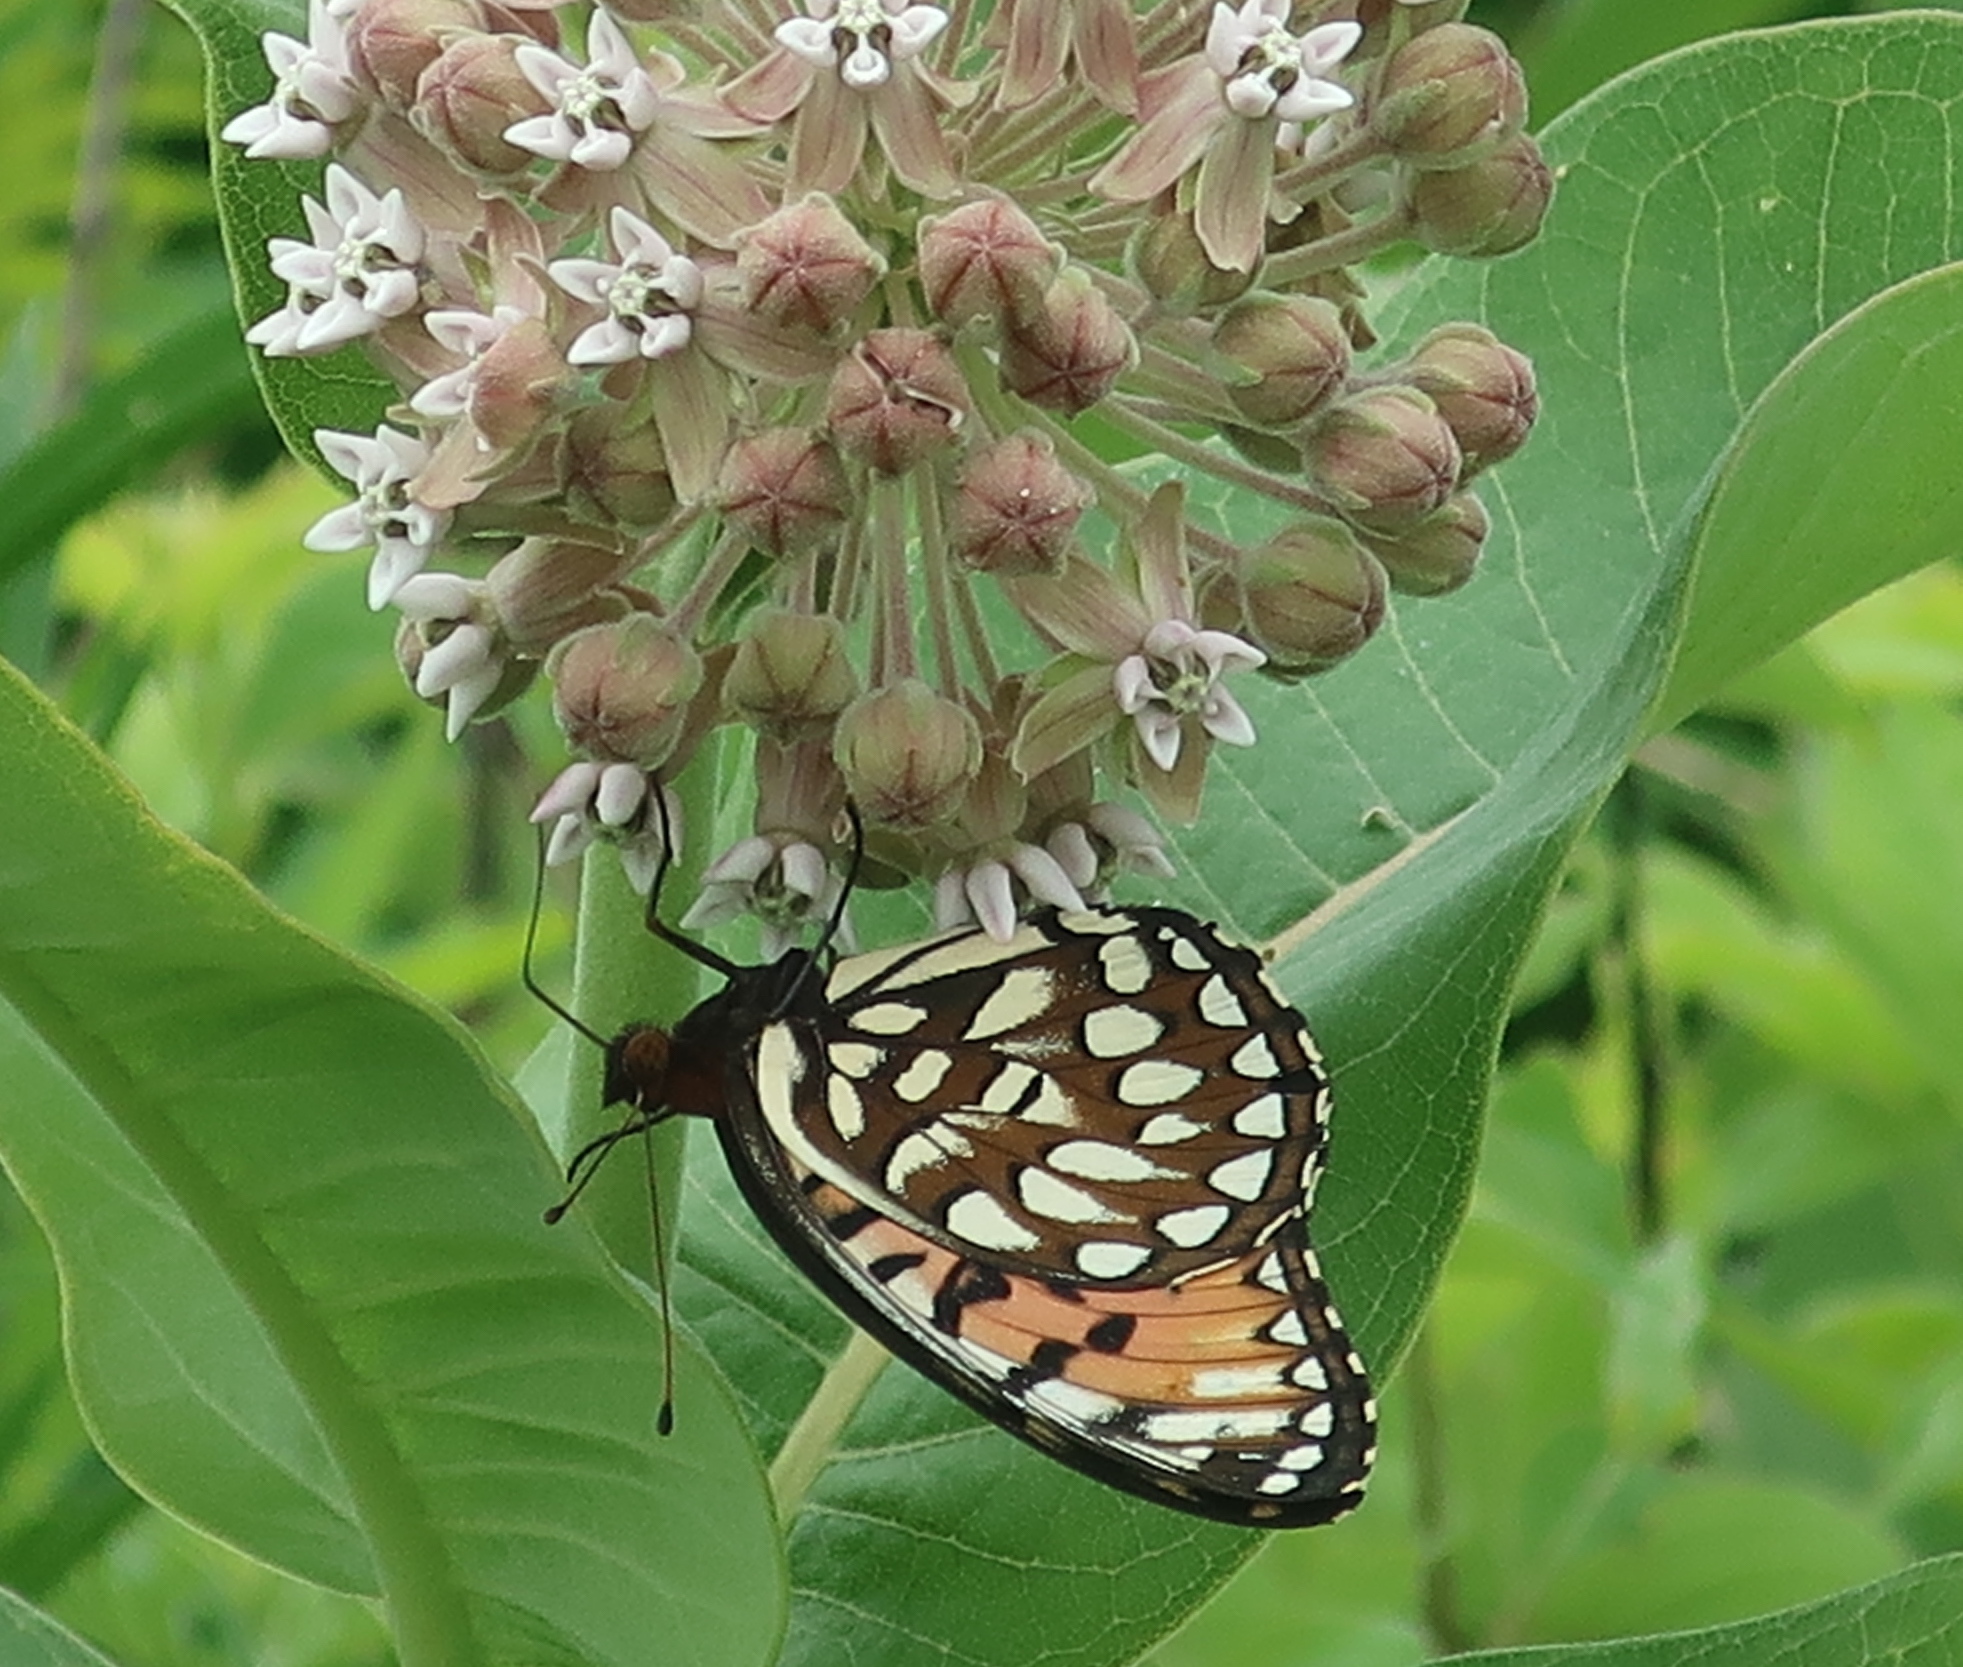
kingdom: Animalia
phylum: Arthropoda
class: Insecta
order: Lepidoptera
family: Nymphalidae
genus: Speyeria
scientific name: Speyeria idalia
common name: Regal fritillary
